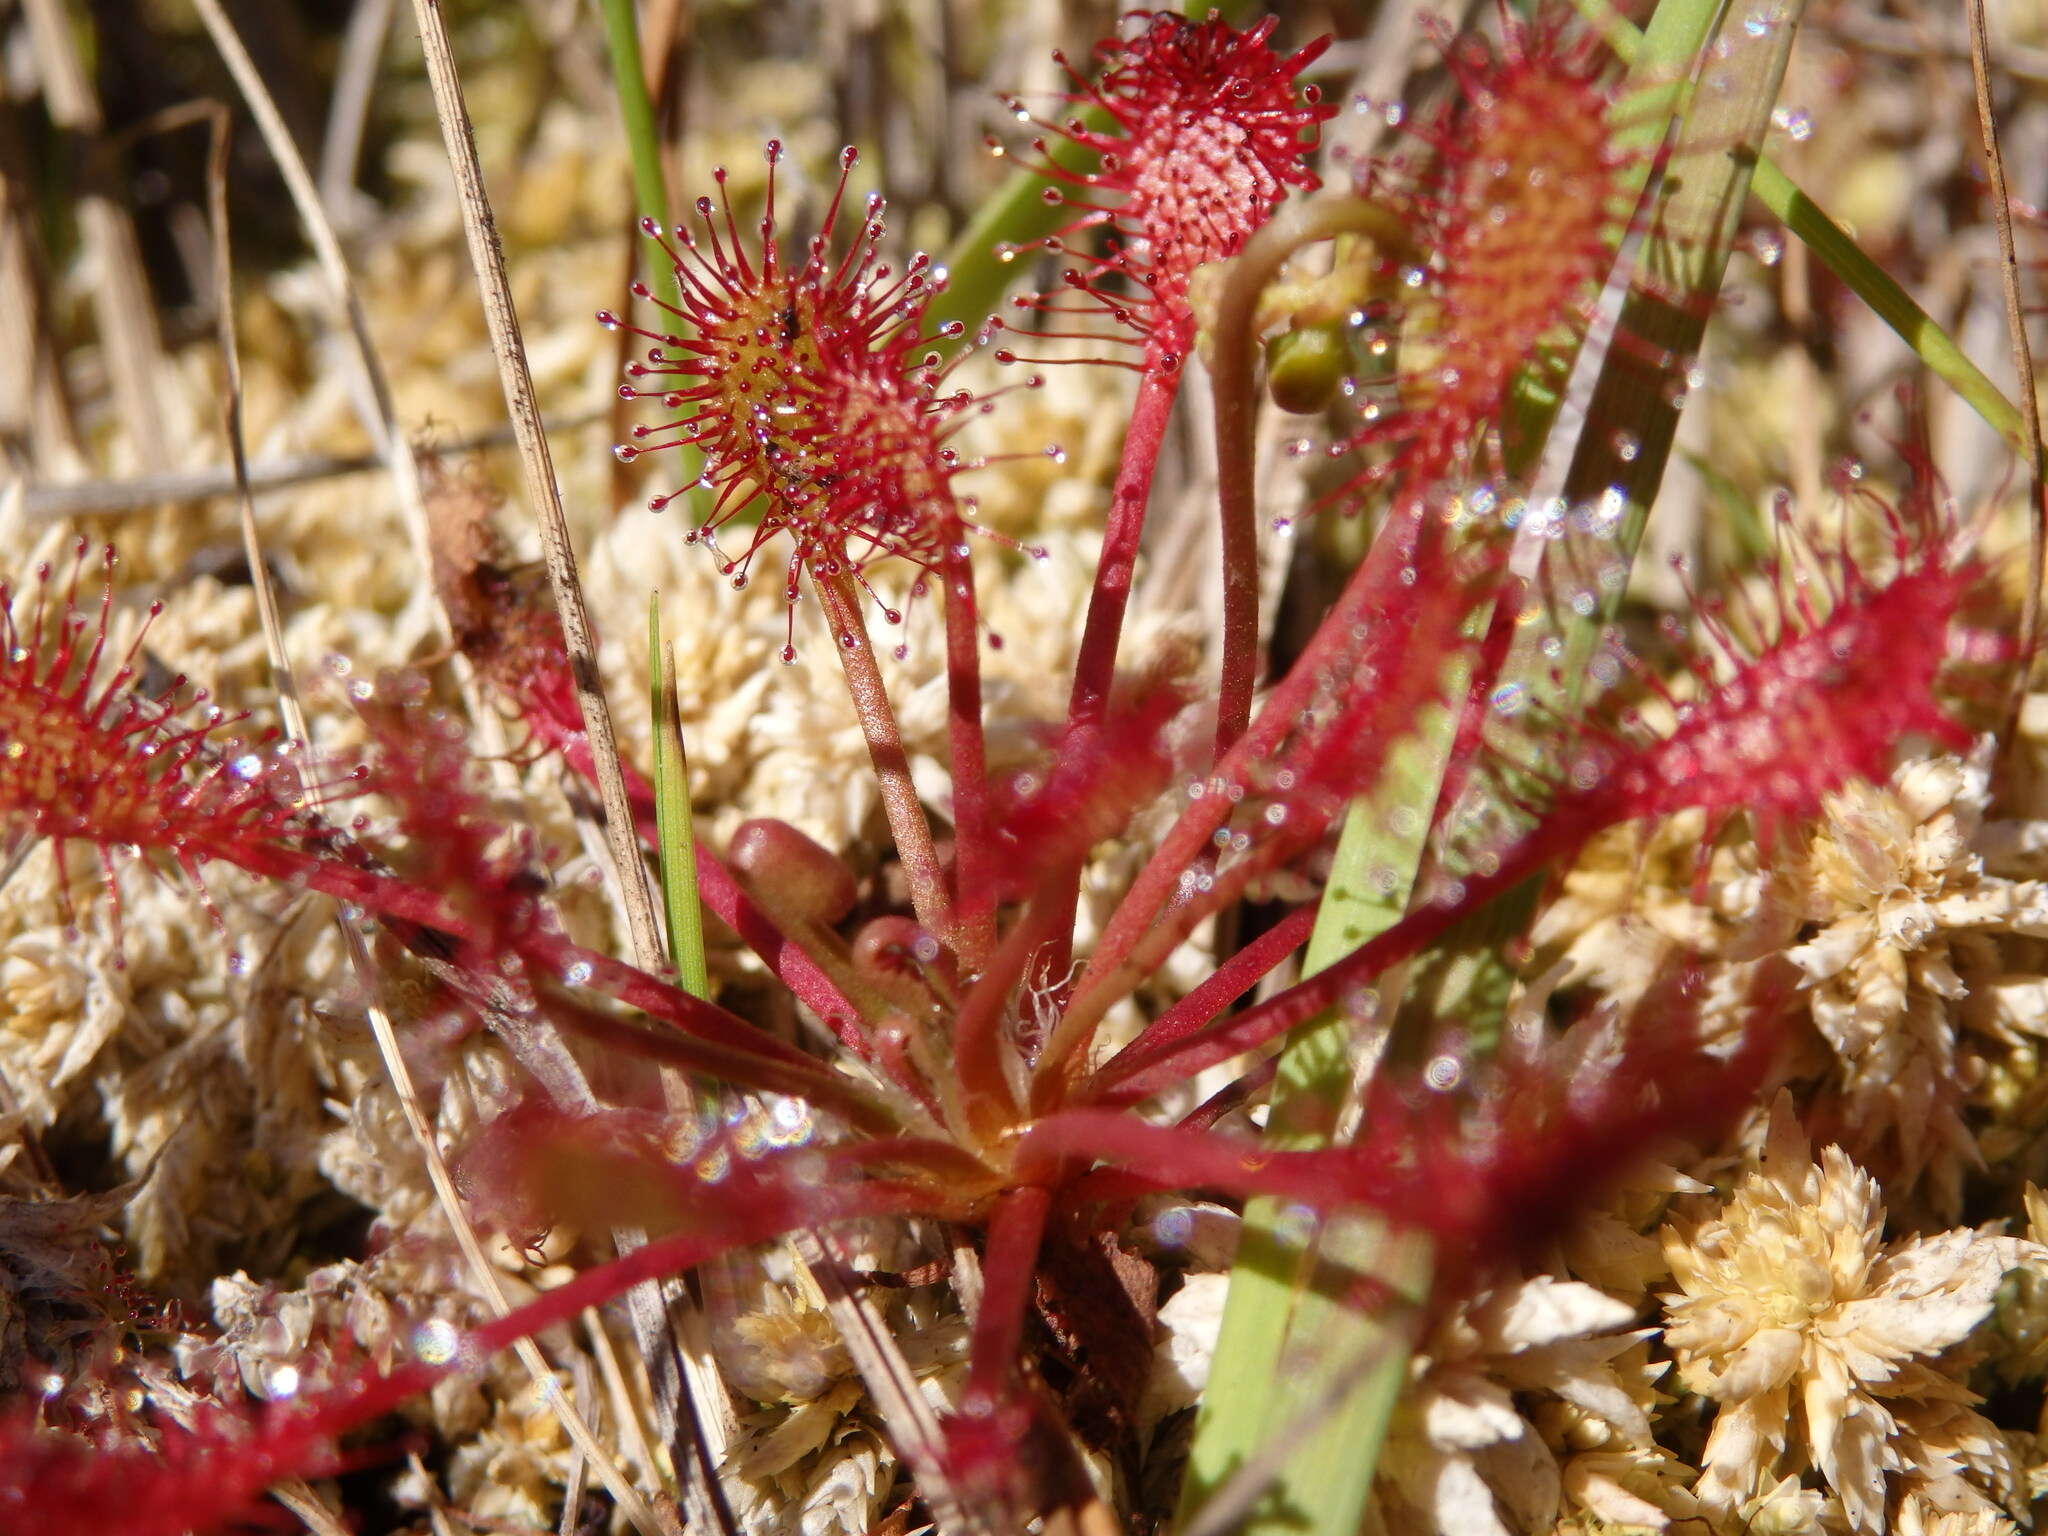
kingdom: Plantae
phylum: Tracheophyta
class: Magnoliopsida
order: Caryophyllales
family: Droseraceae
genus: Drosera
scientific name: Drosera intermedia
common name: Oblong-leaved sundew
